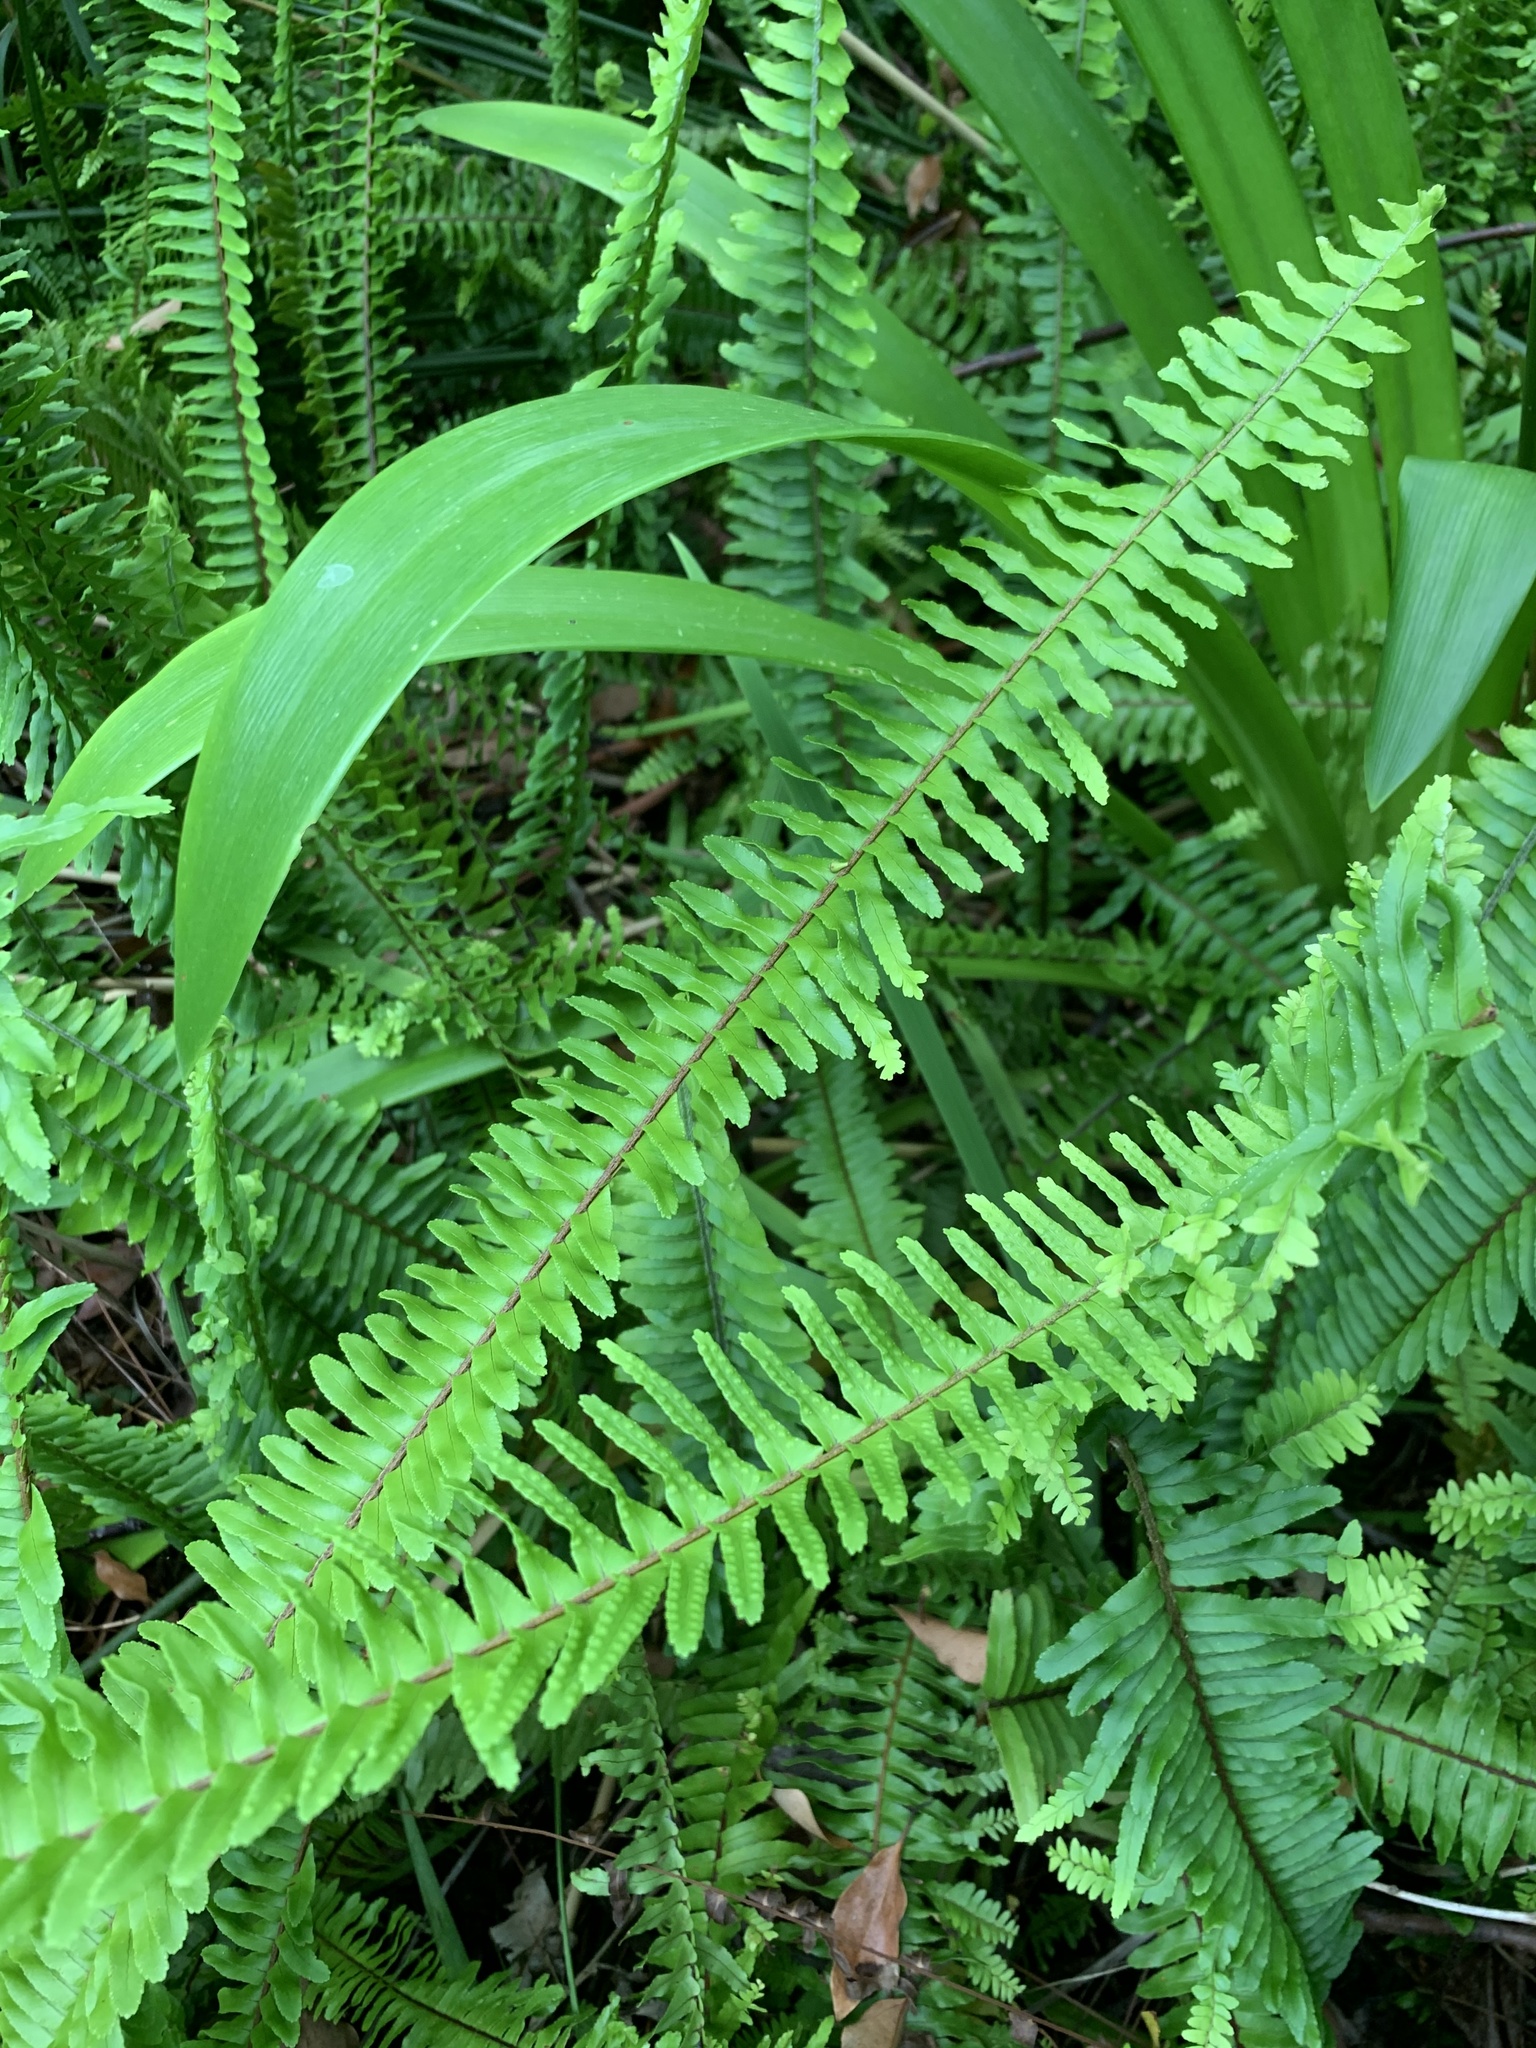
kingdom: Plantae
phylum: Tracheophyta
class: Polypodiopsida
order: Polypodiales
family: Nephrolepidaceae
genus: Nephrolepis
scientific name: Nephrolepis cordifolia
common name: Narrow swordfern
